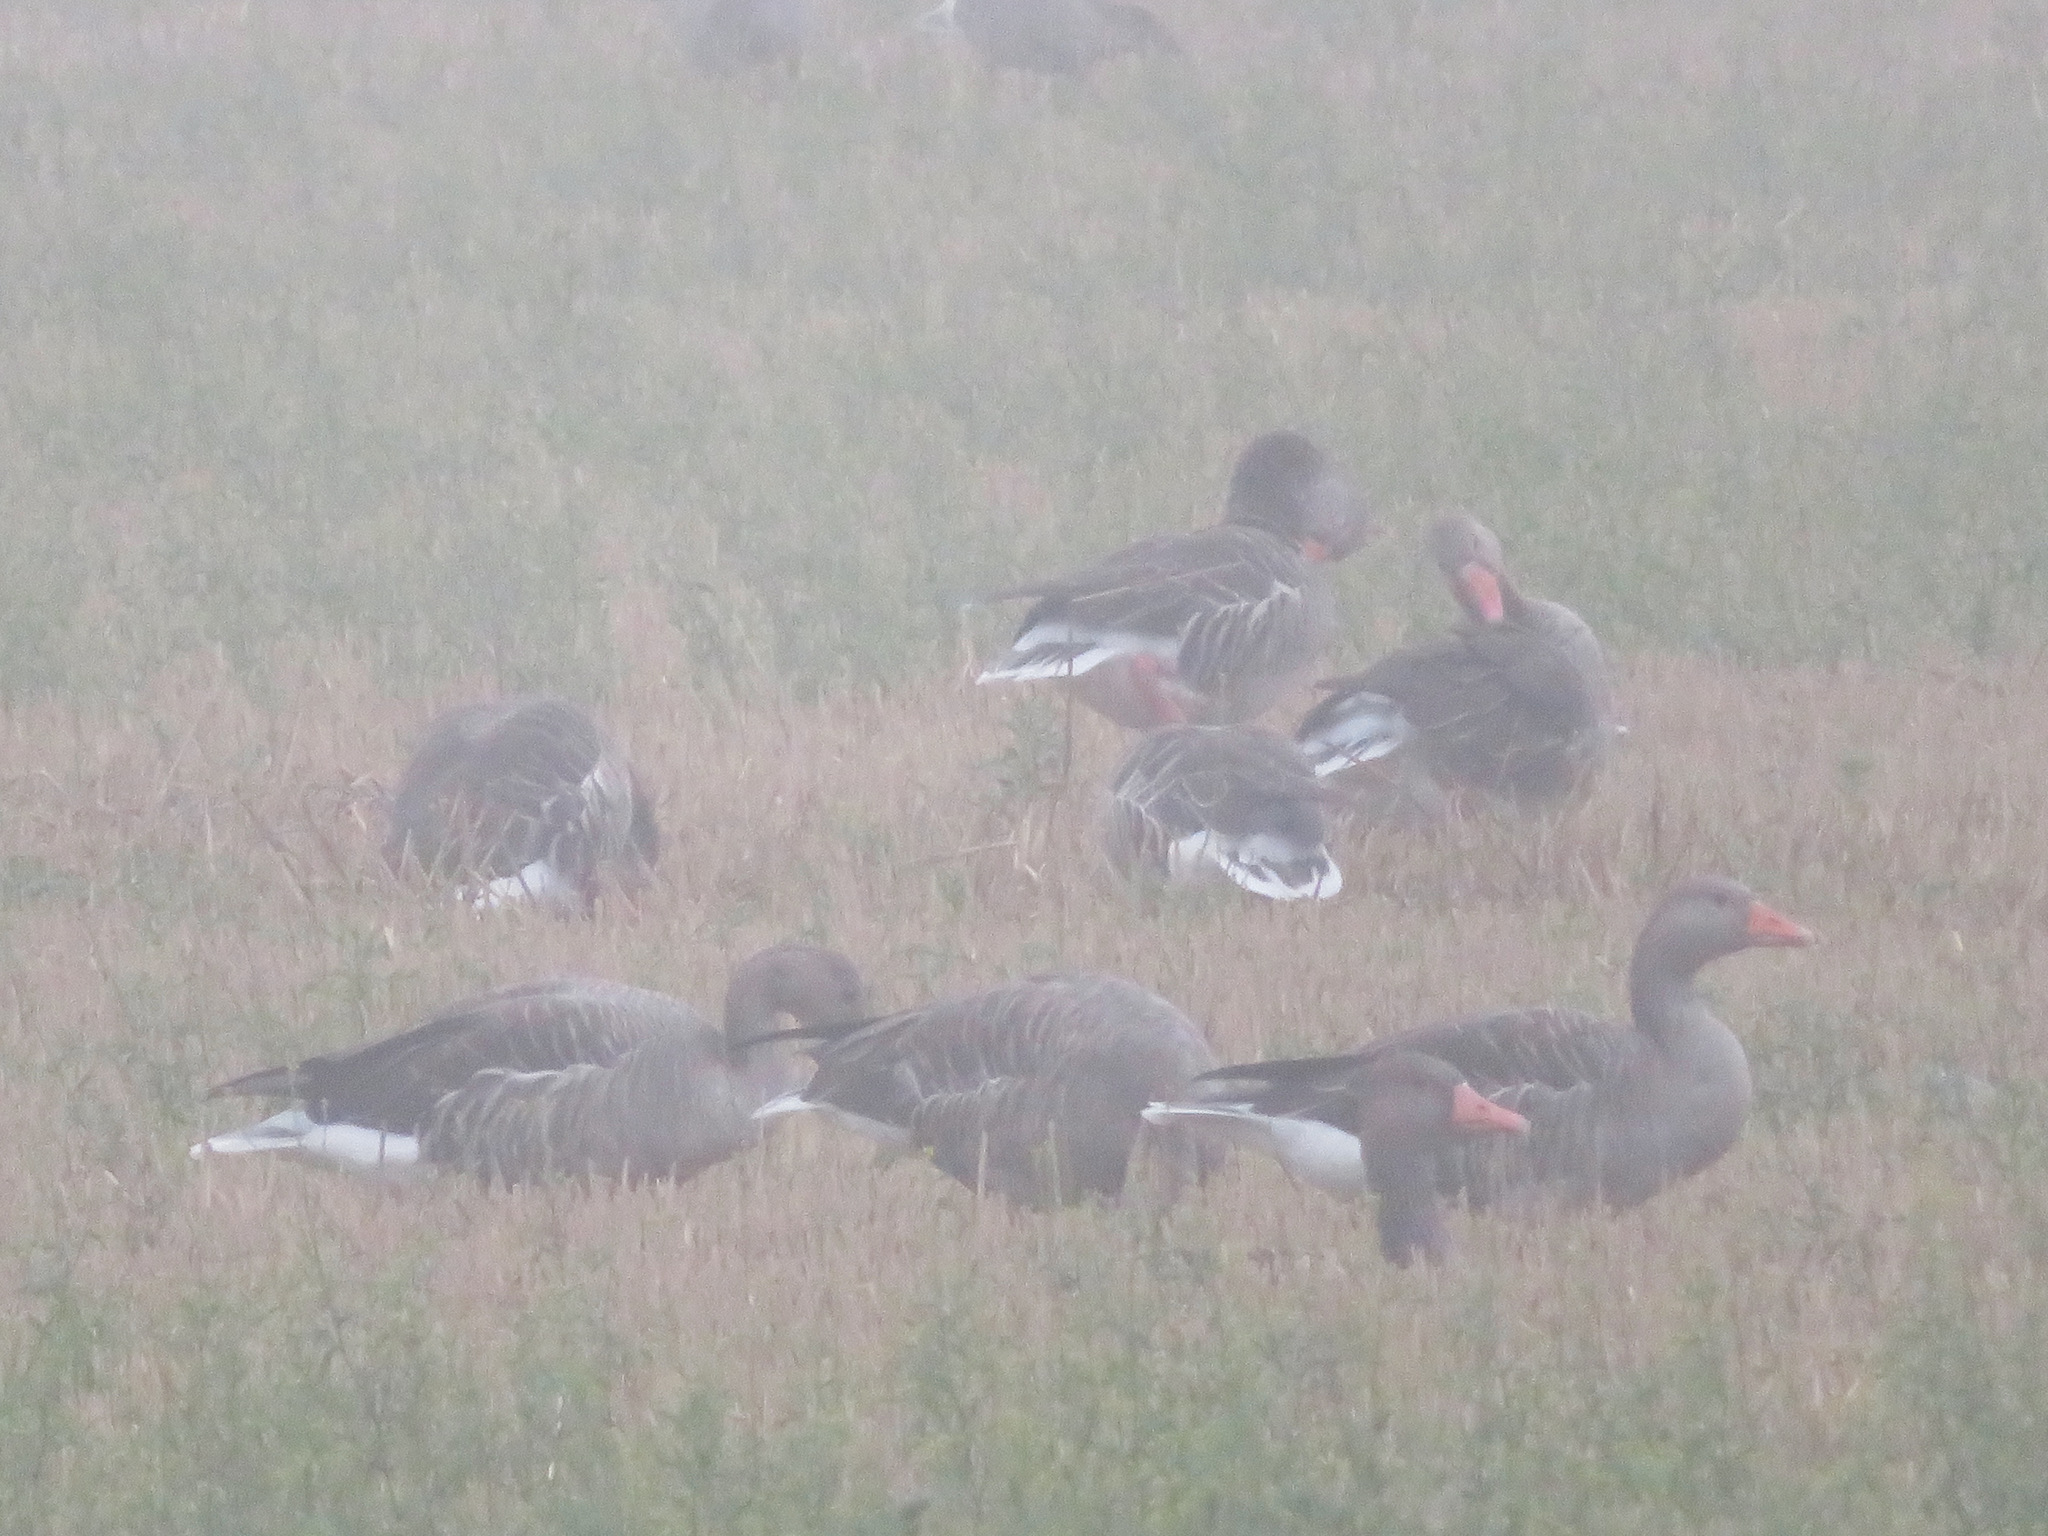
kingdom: Animalia
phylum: Chordata
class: Aves
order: Anseriformes
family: Anatidae
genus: Anser
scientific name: Anser anser
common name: Greylag goose
